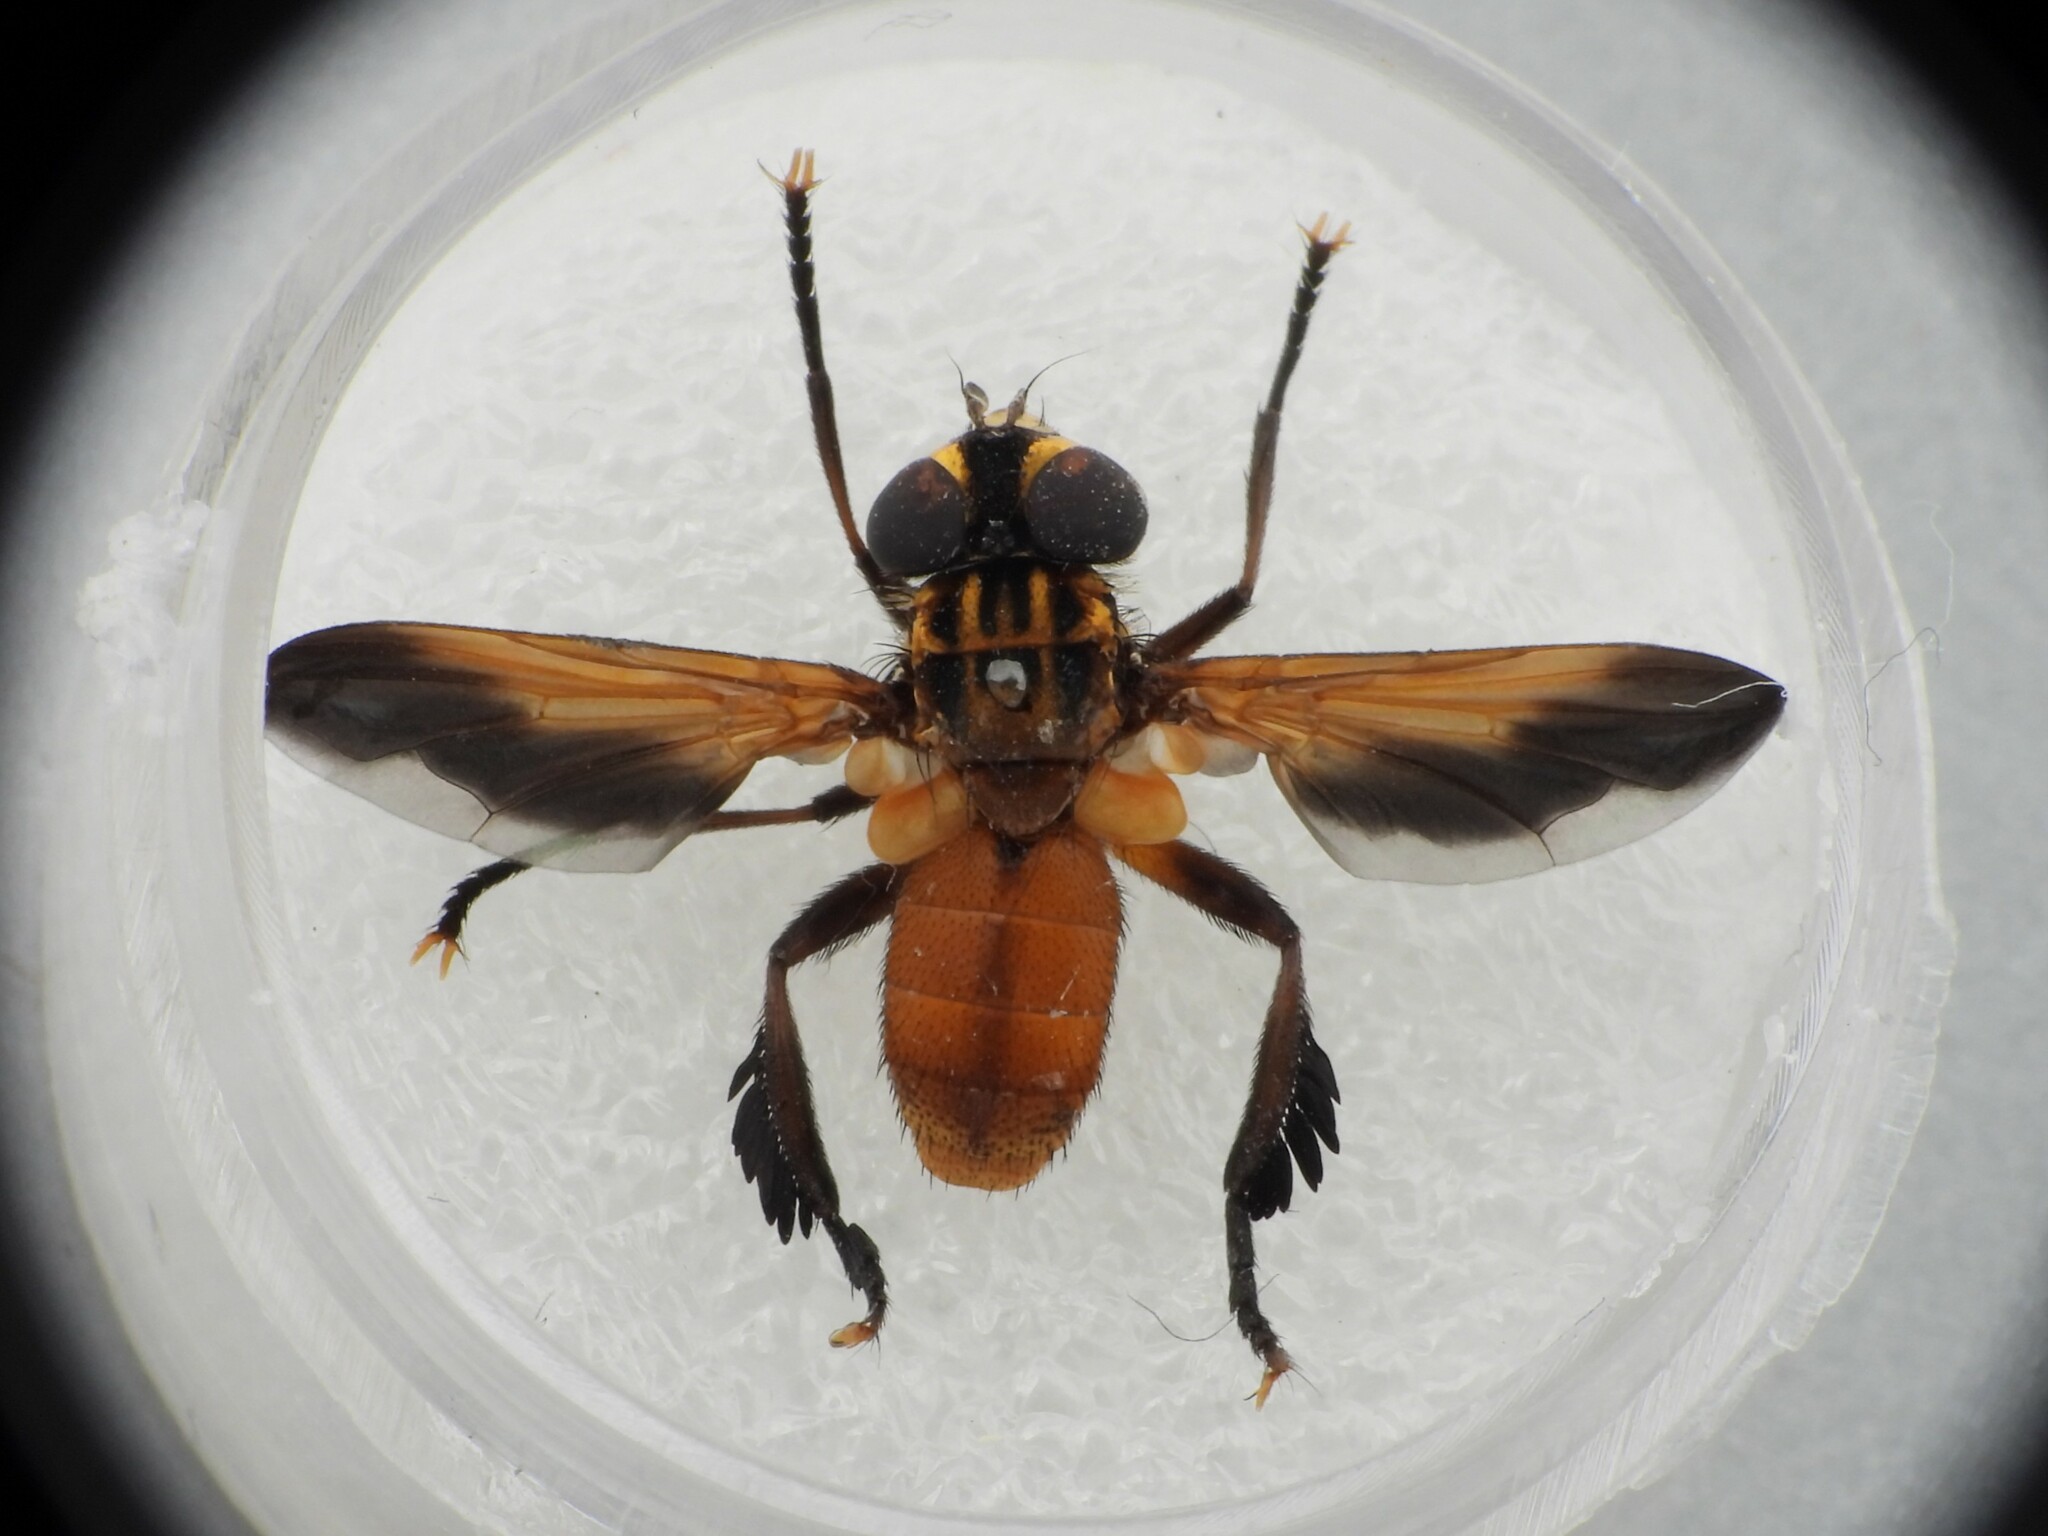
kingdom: Animalia
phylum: Arthropoda
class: Insecta
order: Diptera
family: Tachinidae
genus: Trichopoda
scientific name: Trichopoda pictipennis
